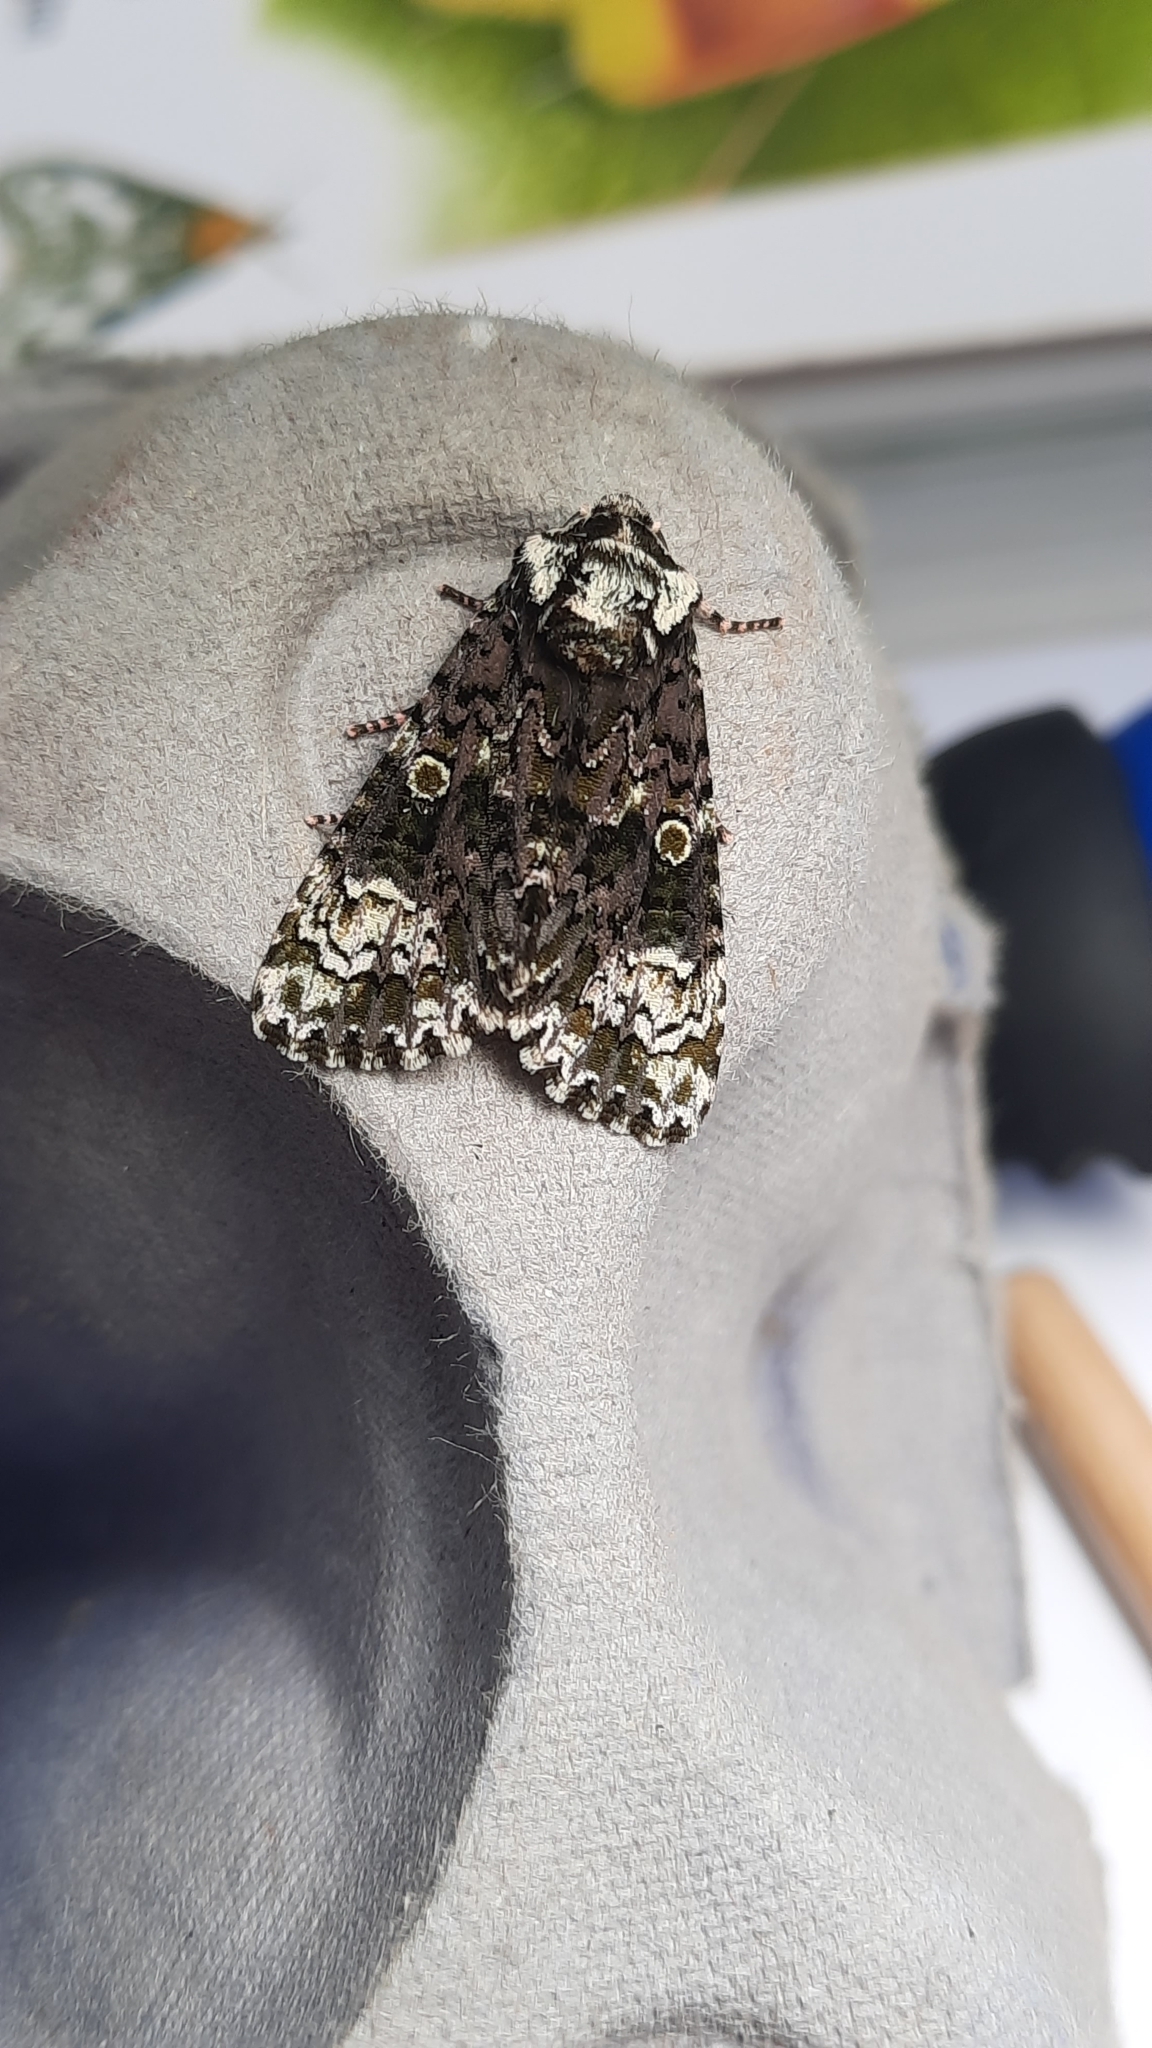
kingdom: Animalia
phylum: Arthropoda
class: Insecta
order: Lepidoptera
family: Noctuidae
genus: Craniophora
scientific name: Craniophora ligustri
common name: Coronet
